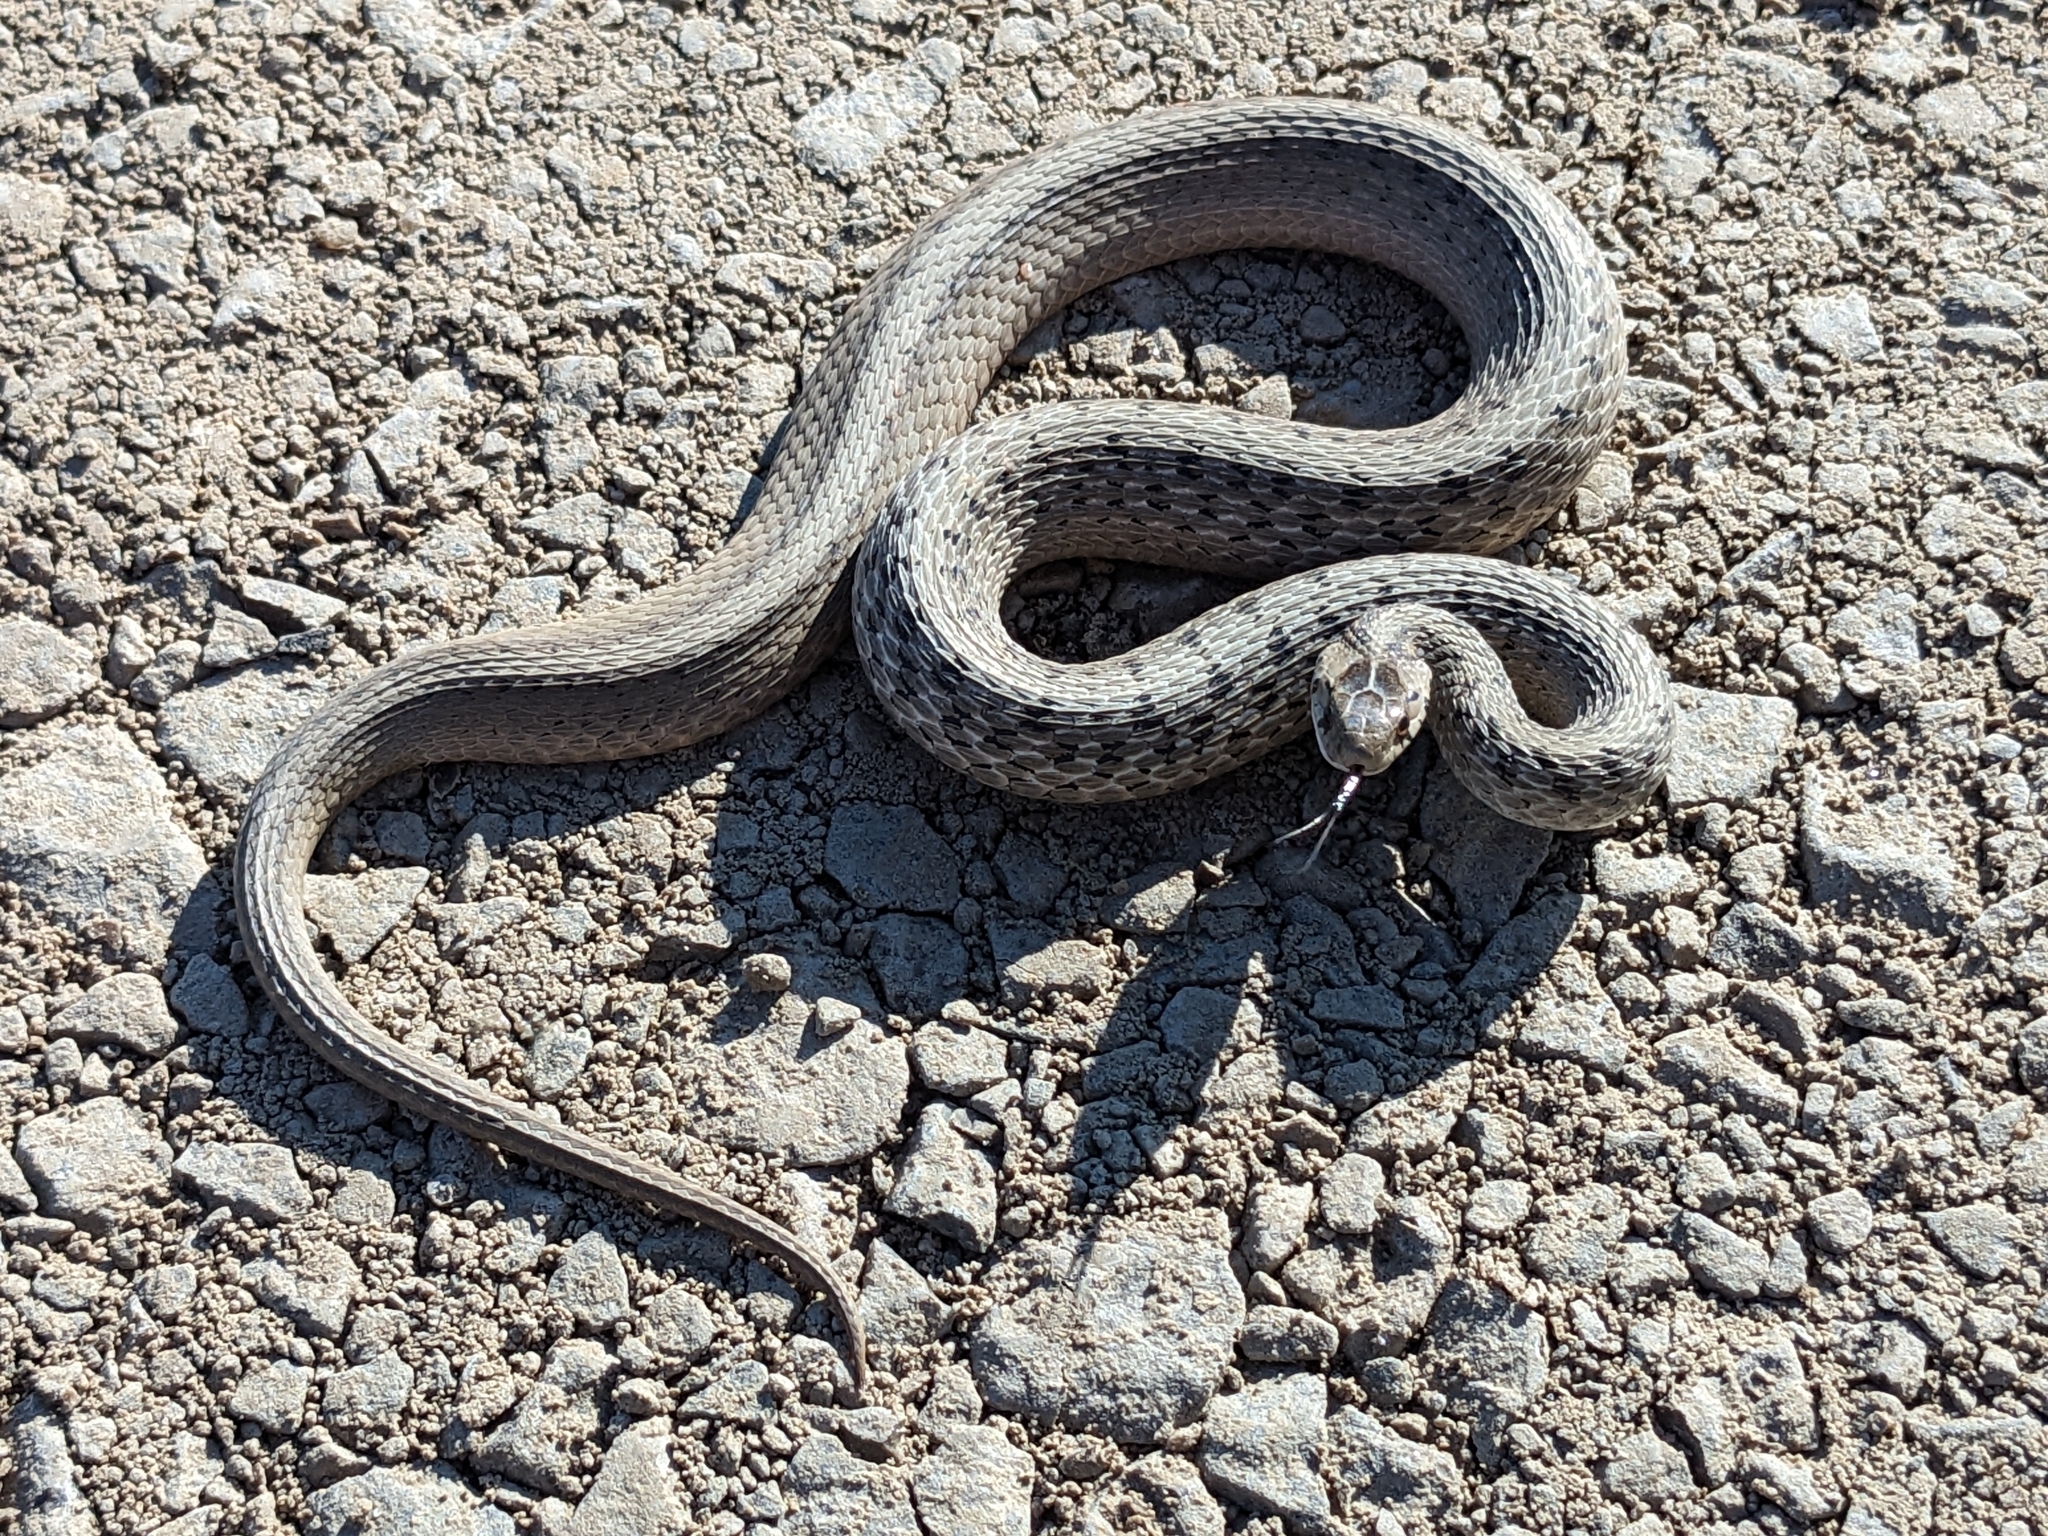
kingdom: Animalia
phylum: Chordata
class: Squamata
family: Colubridae
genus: Storeria
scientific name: Storeria dekayi
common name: (dekay’s) brown snake
